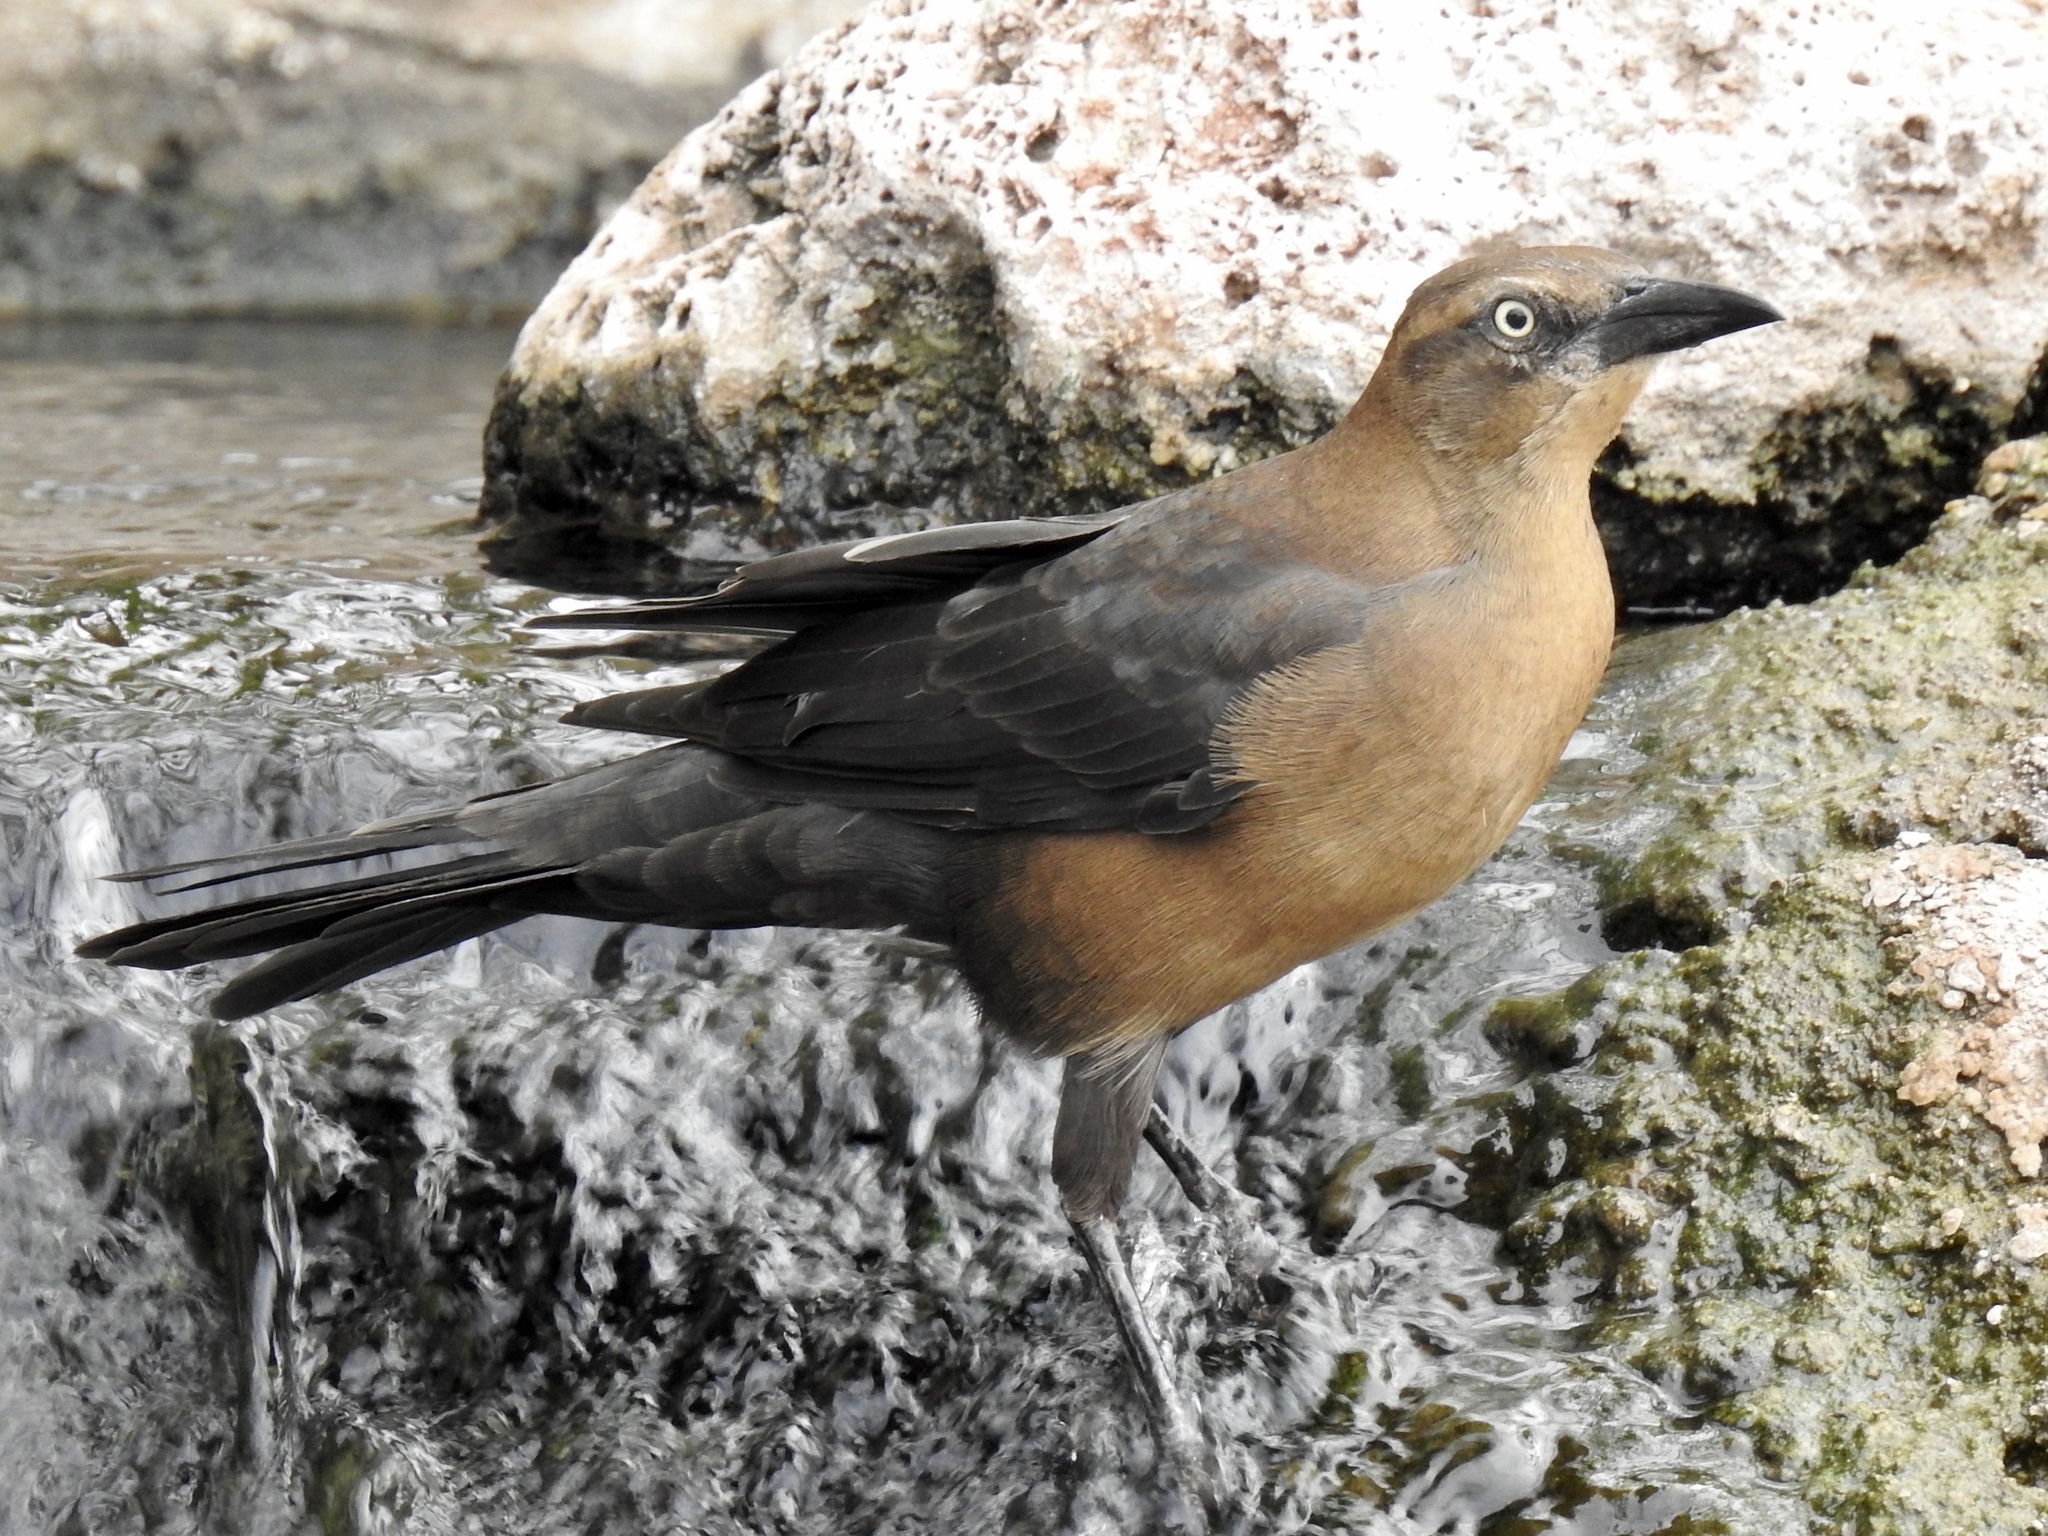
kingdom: Animalia
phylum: Chordata
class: Aves
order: Passeriformes
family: Icteridae
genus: Quiscalus
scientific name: Quiscalus mexicanus
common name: Great-tailed grackle
